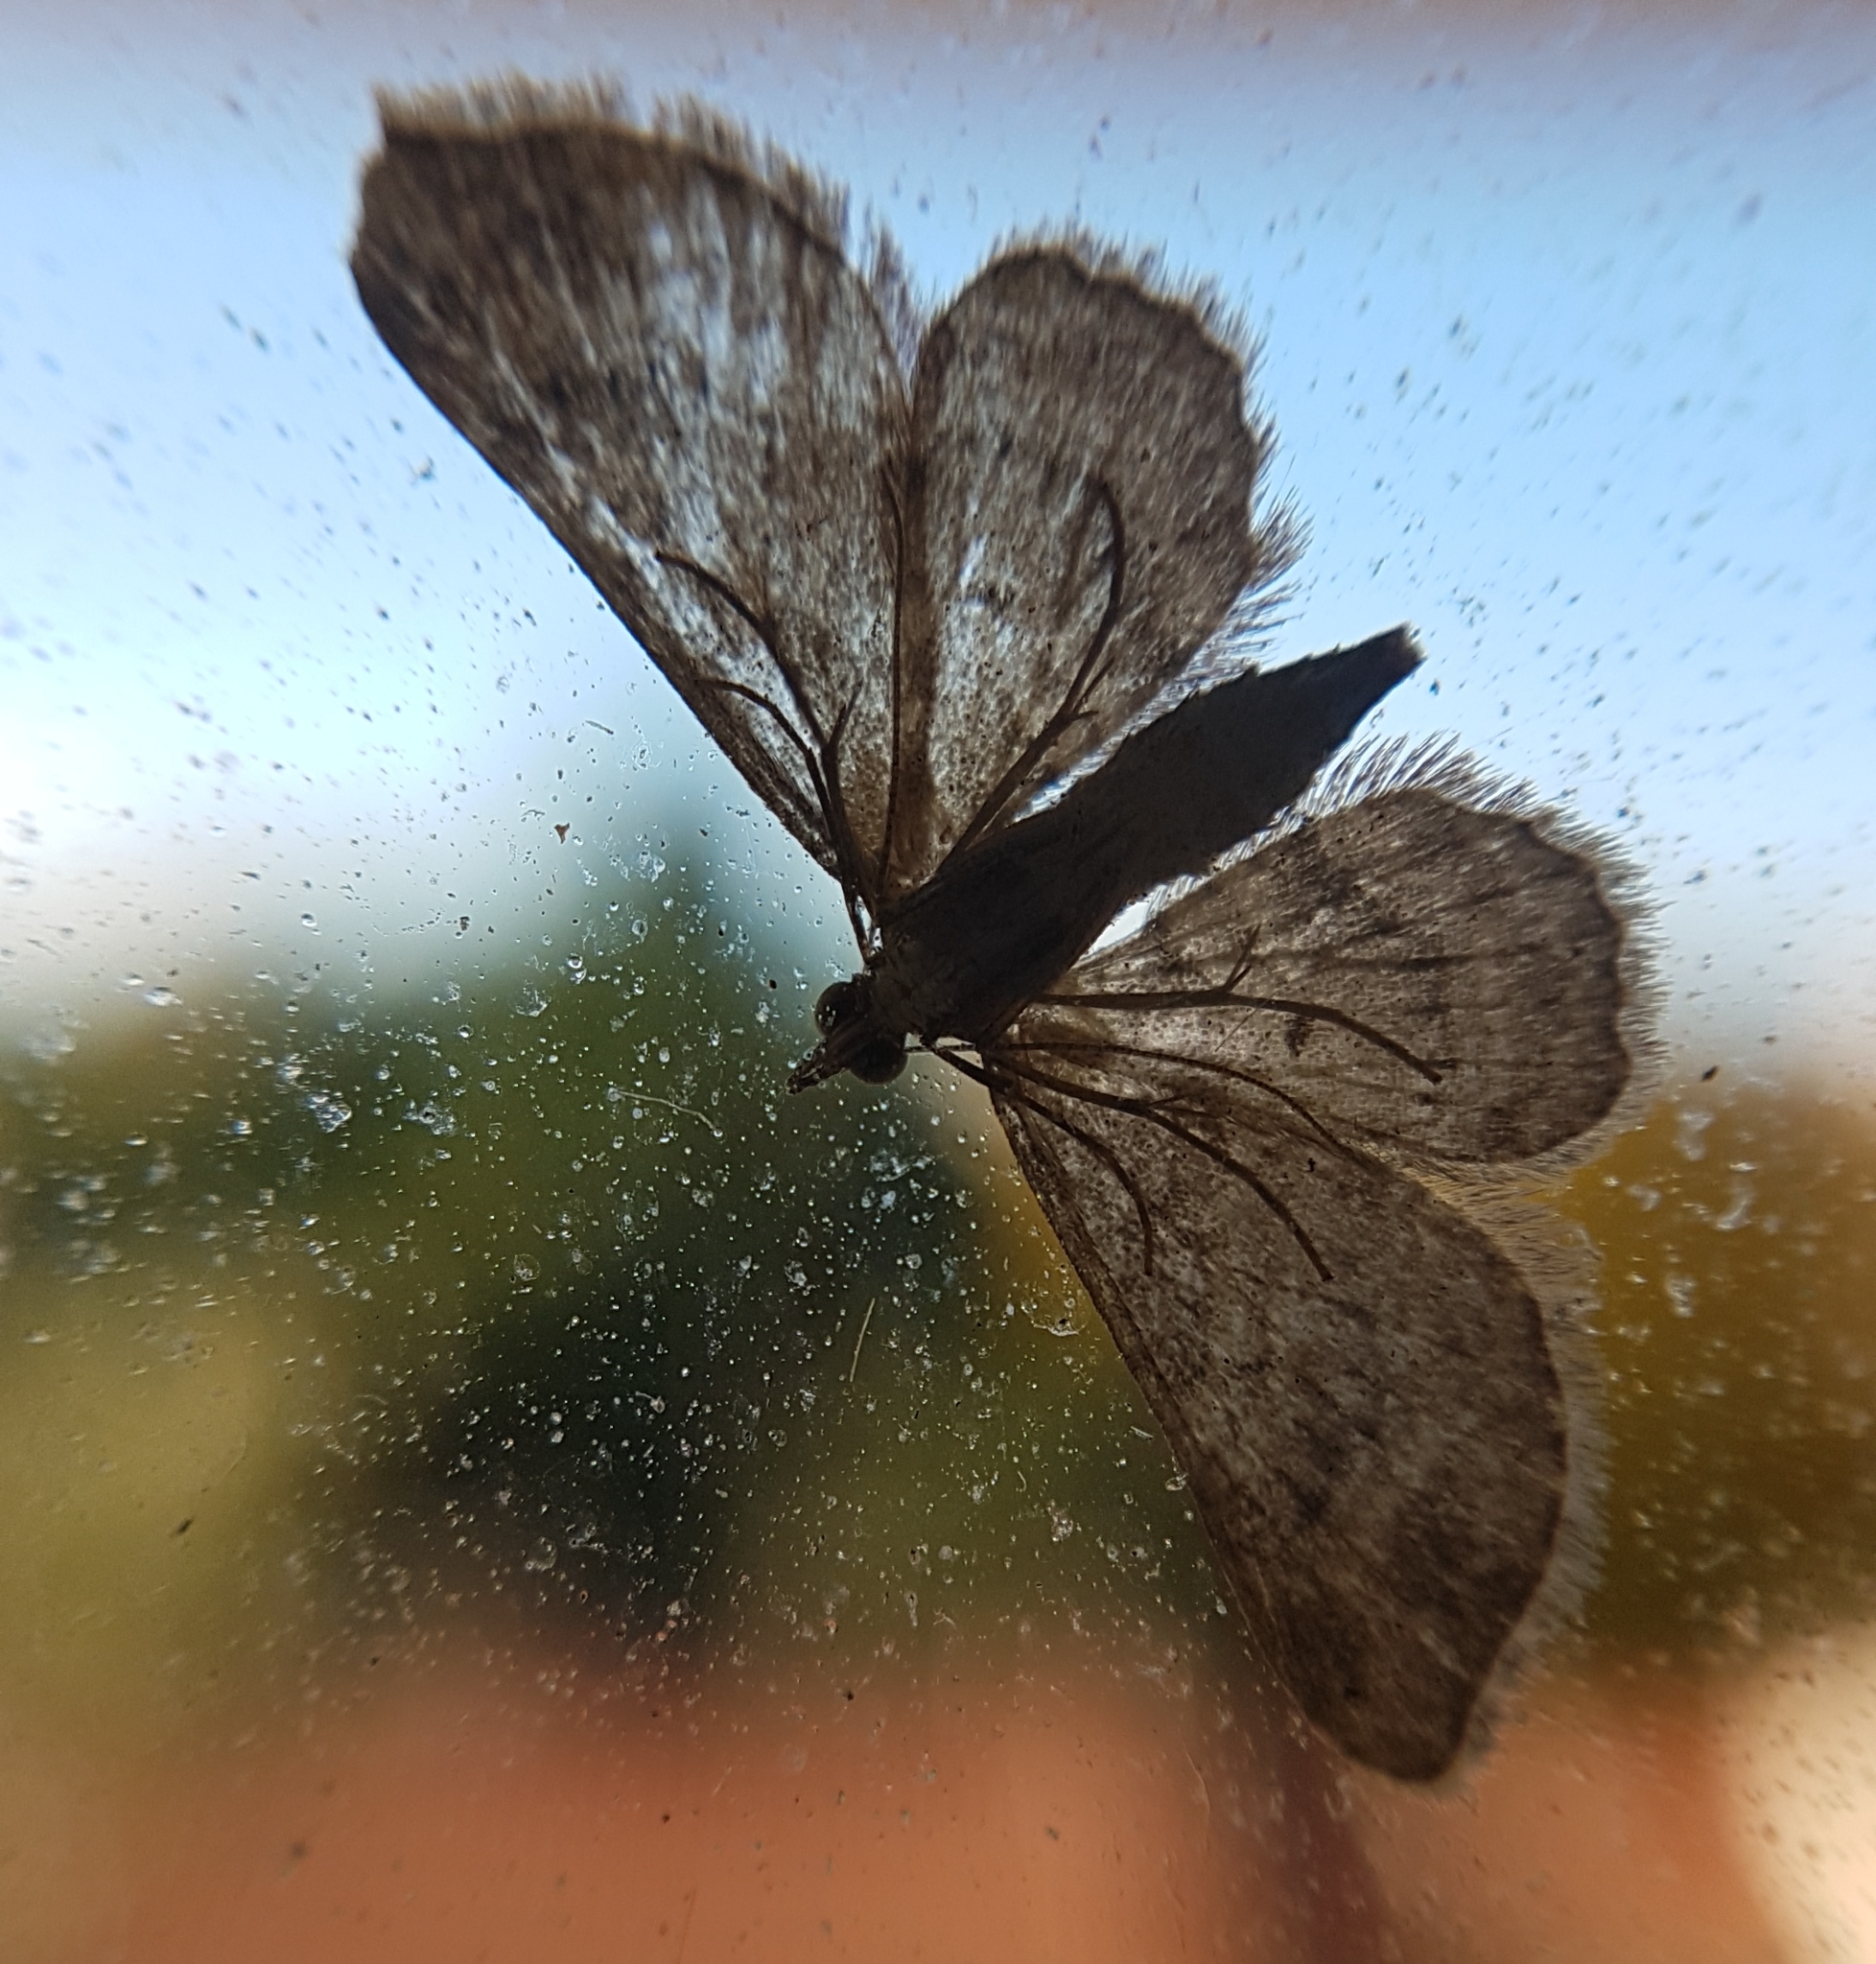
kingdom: Animalia
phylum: Arthropoda
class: Insecta
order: Lepidoptera
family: Geometridae
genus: Gymnoscelis
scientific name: Gymnoscelis rufifasciata
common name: Double-striped pug
